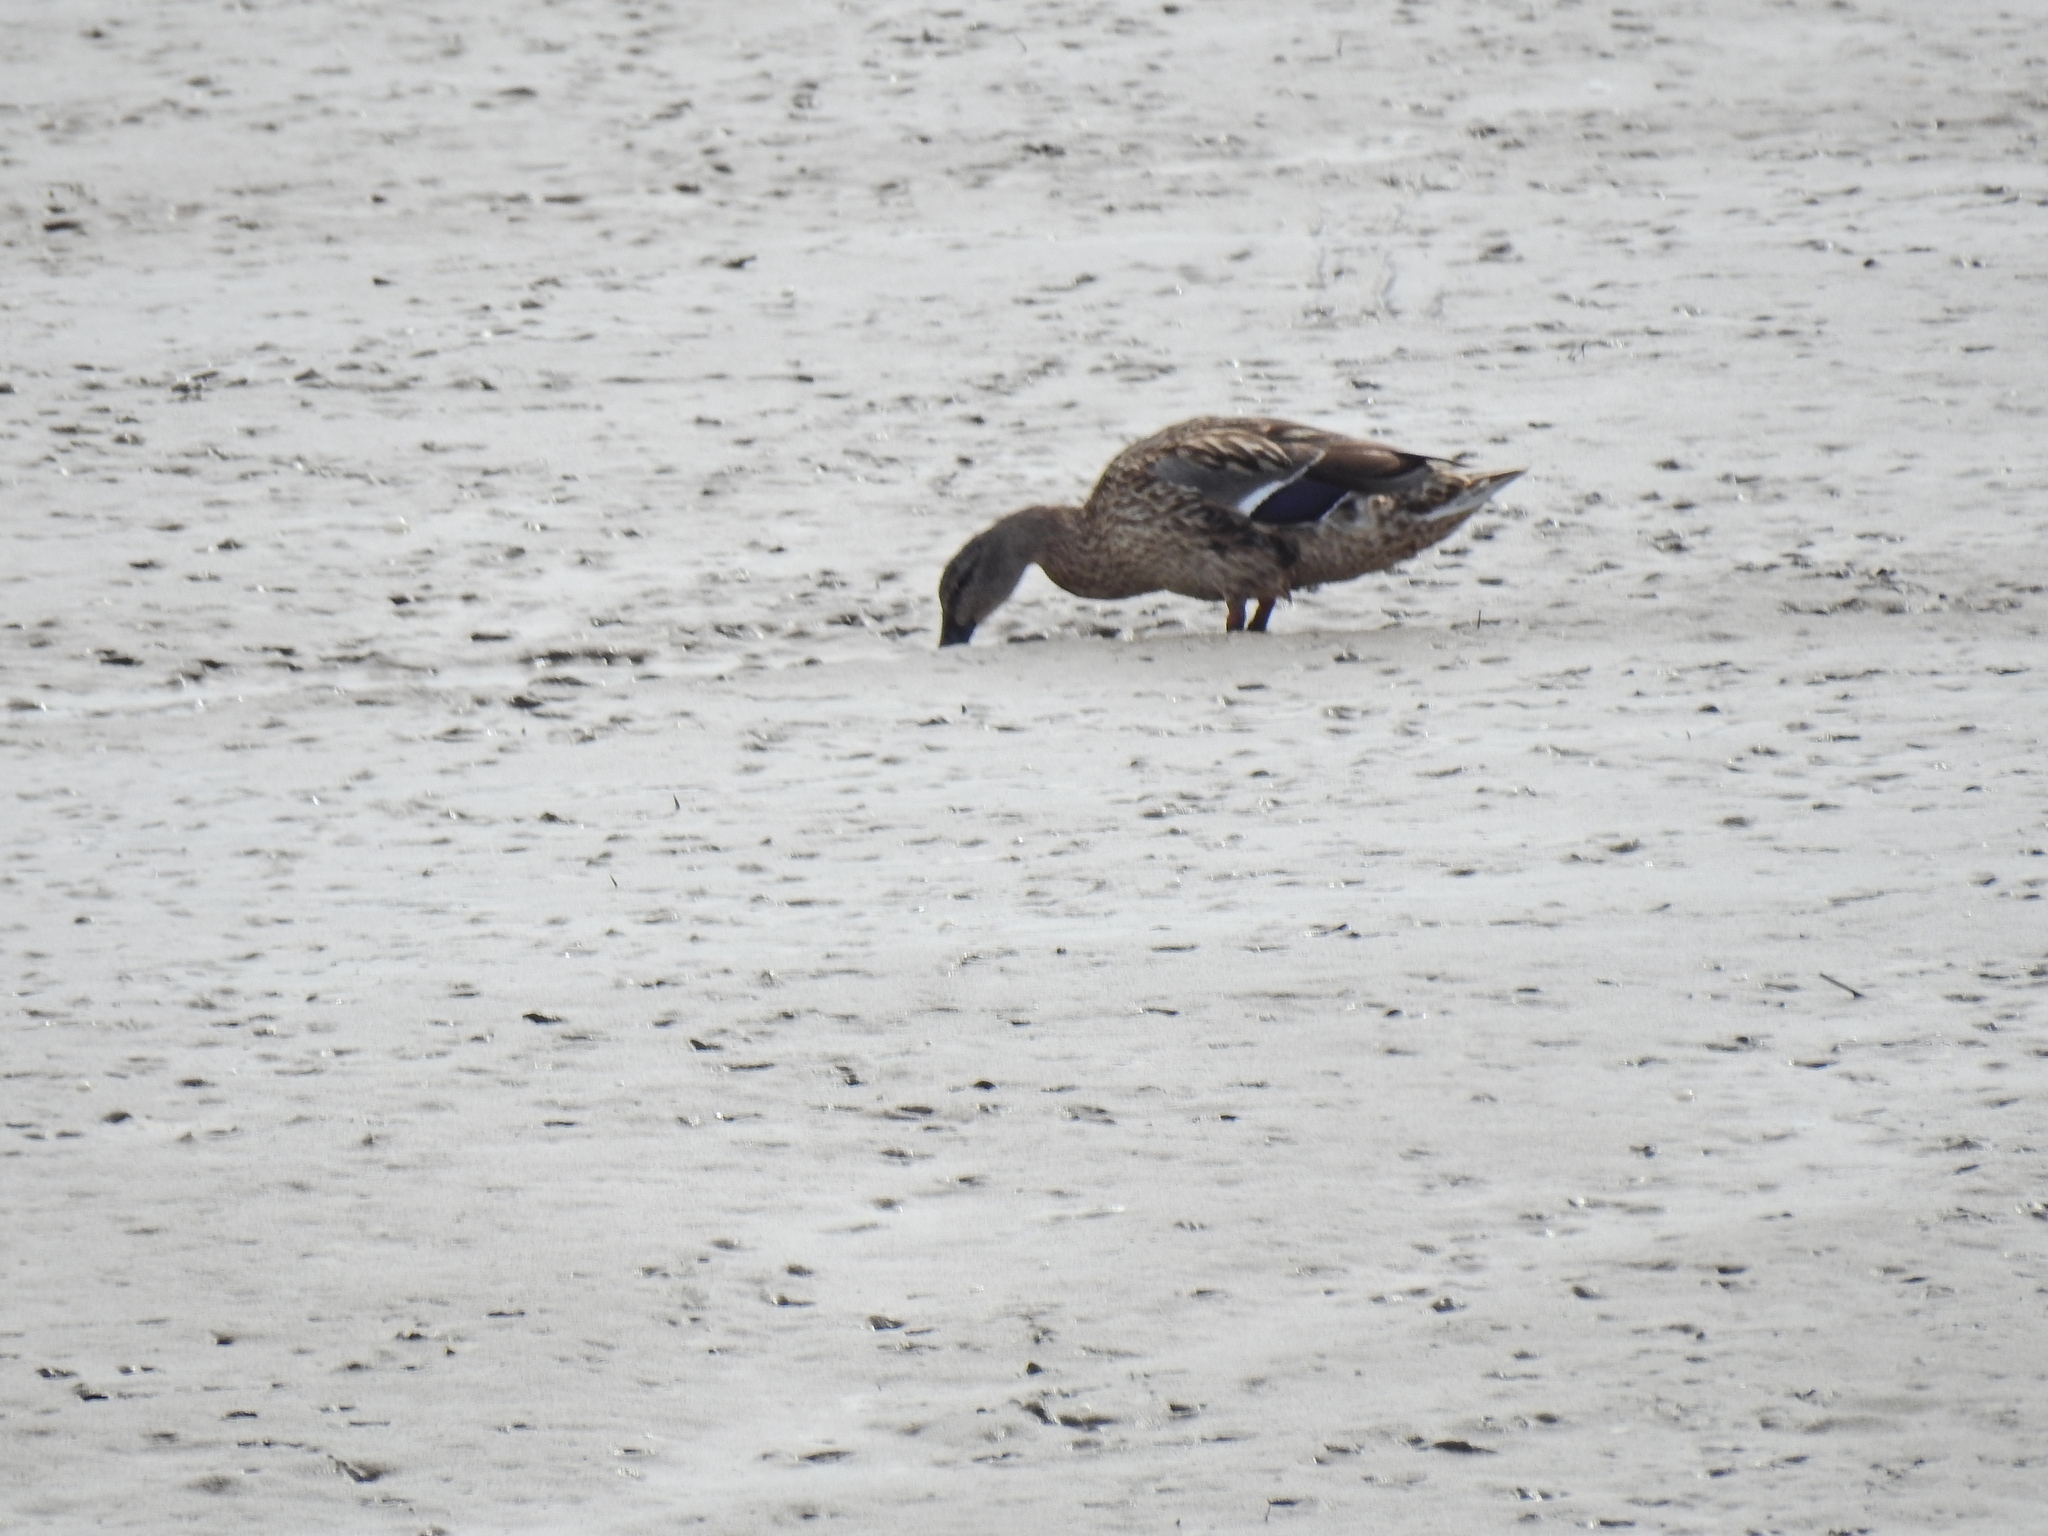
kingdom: Animalia
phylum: Chordata
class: Aves
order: Anseriformes
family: Anatidae
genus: Anas
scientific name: Anas platyrhynchos
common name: Mallard
